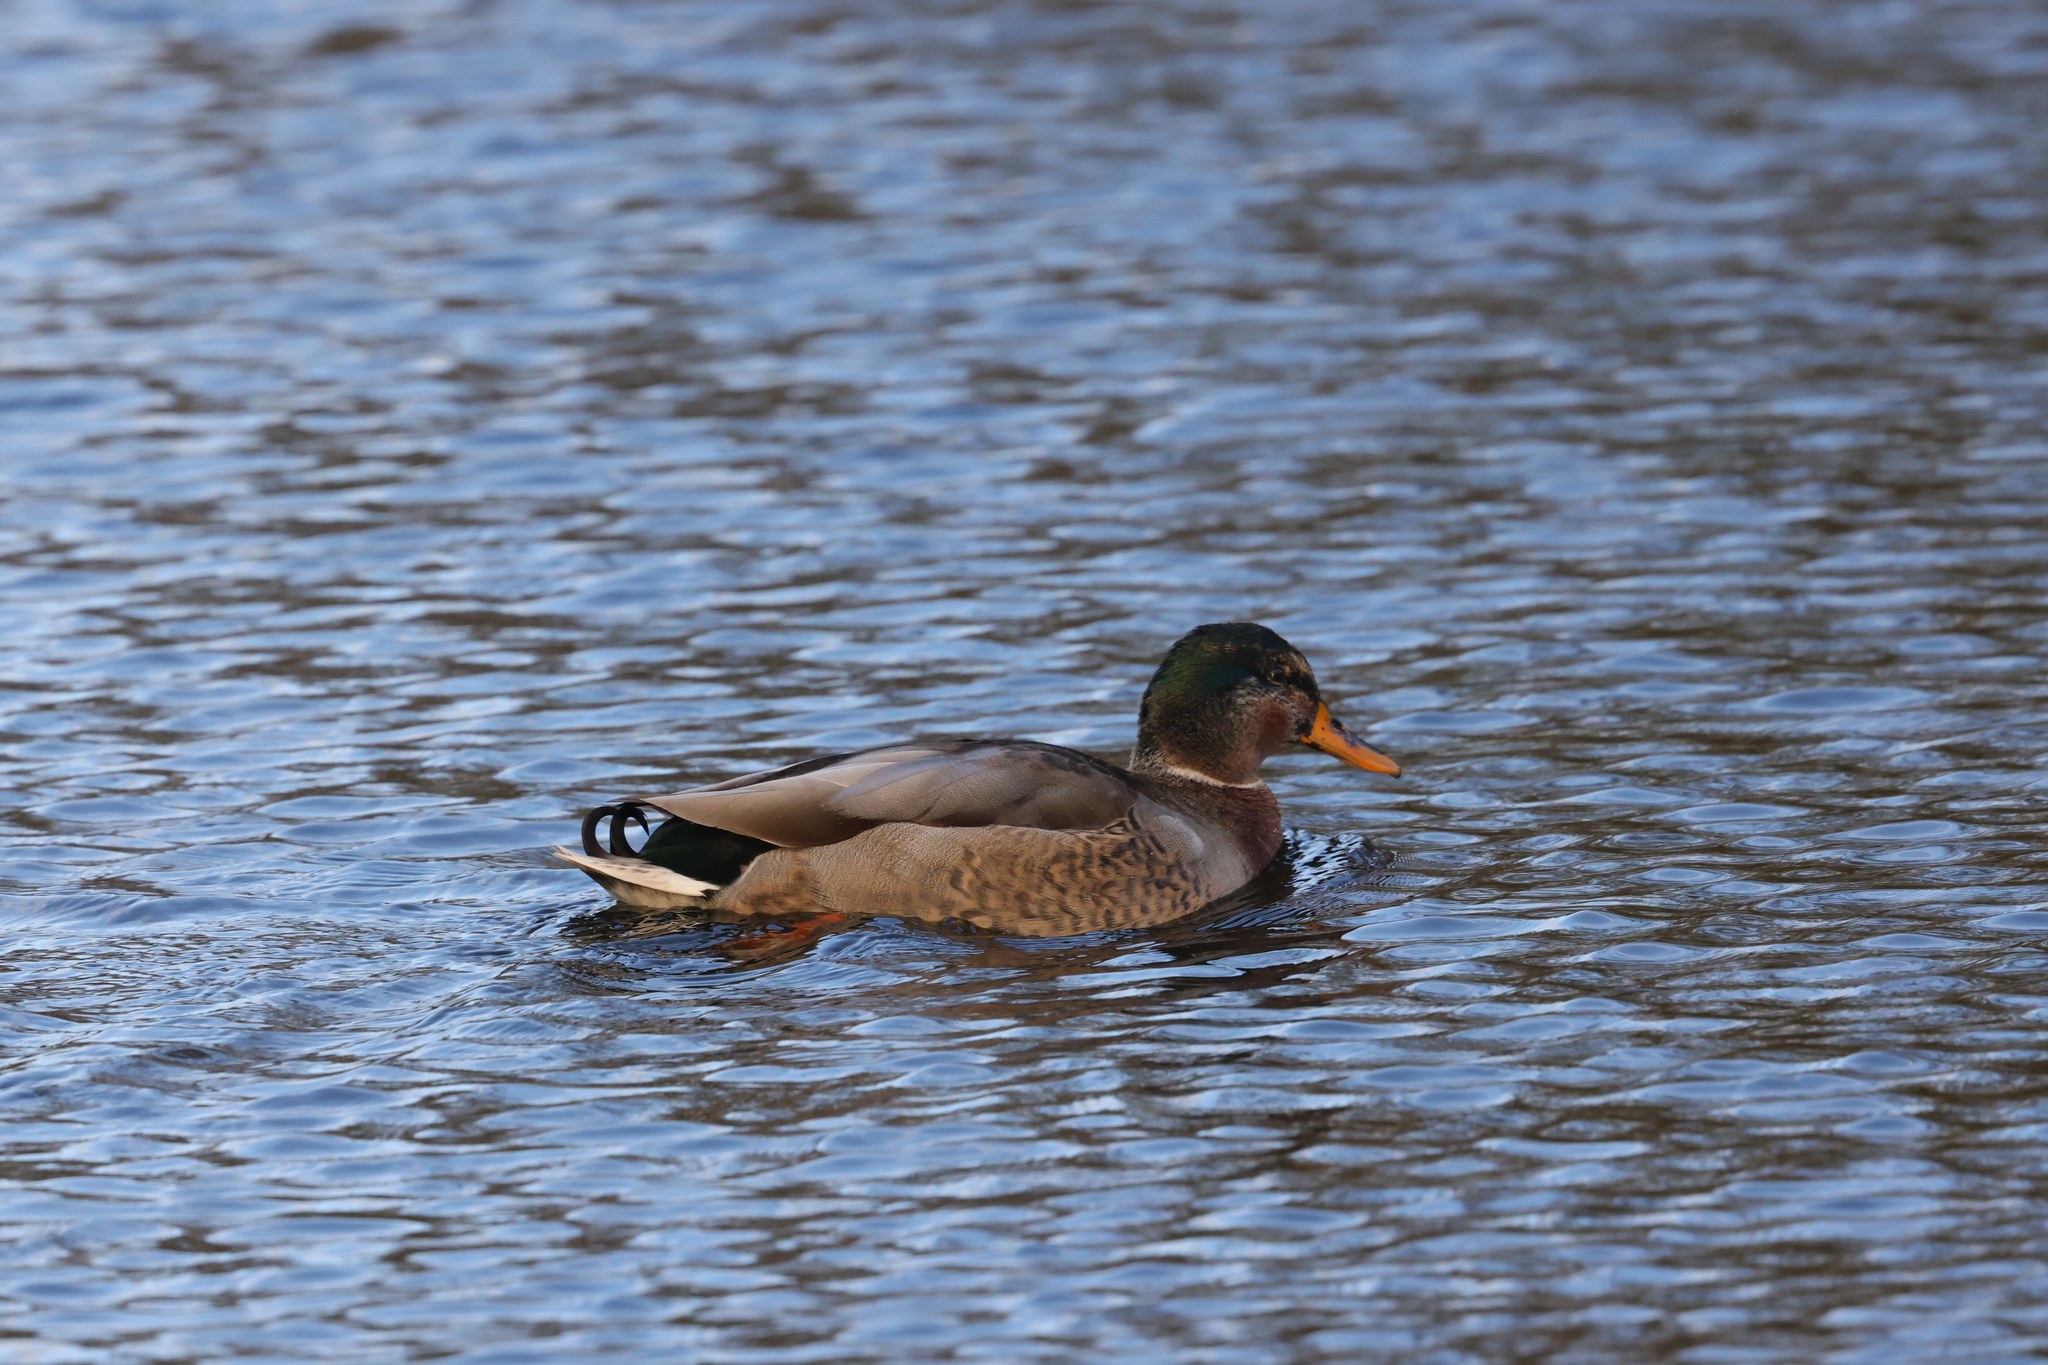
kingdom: Animalia
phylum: Chordata
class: Aves
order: Anseriformes
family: Anatidae
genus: Anas
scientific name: Anas platyrhynchos
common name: Mallard
